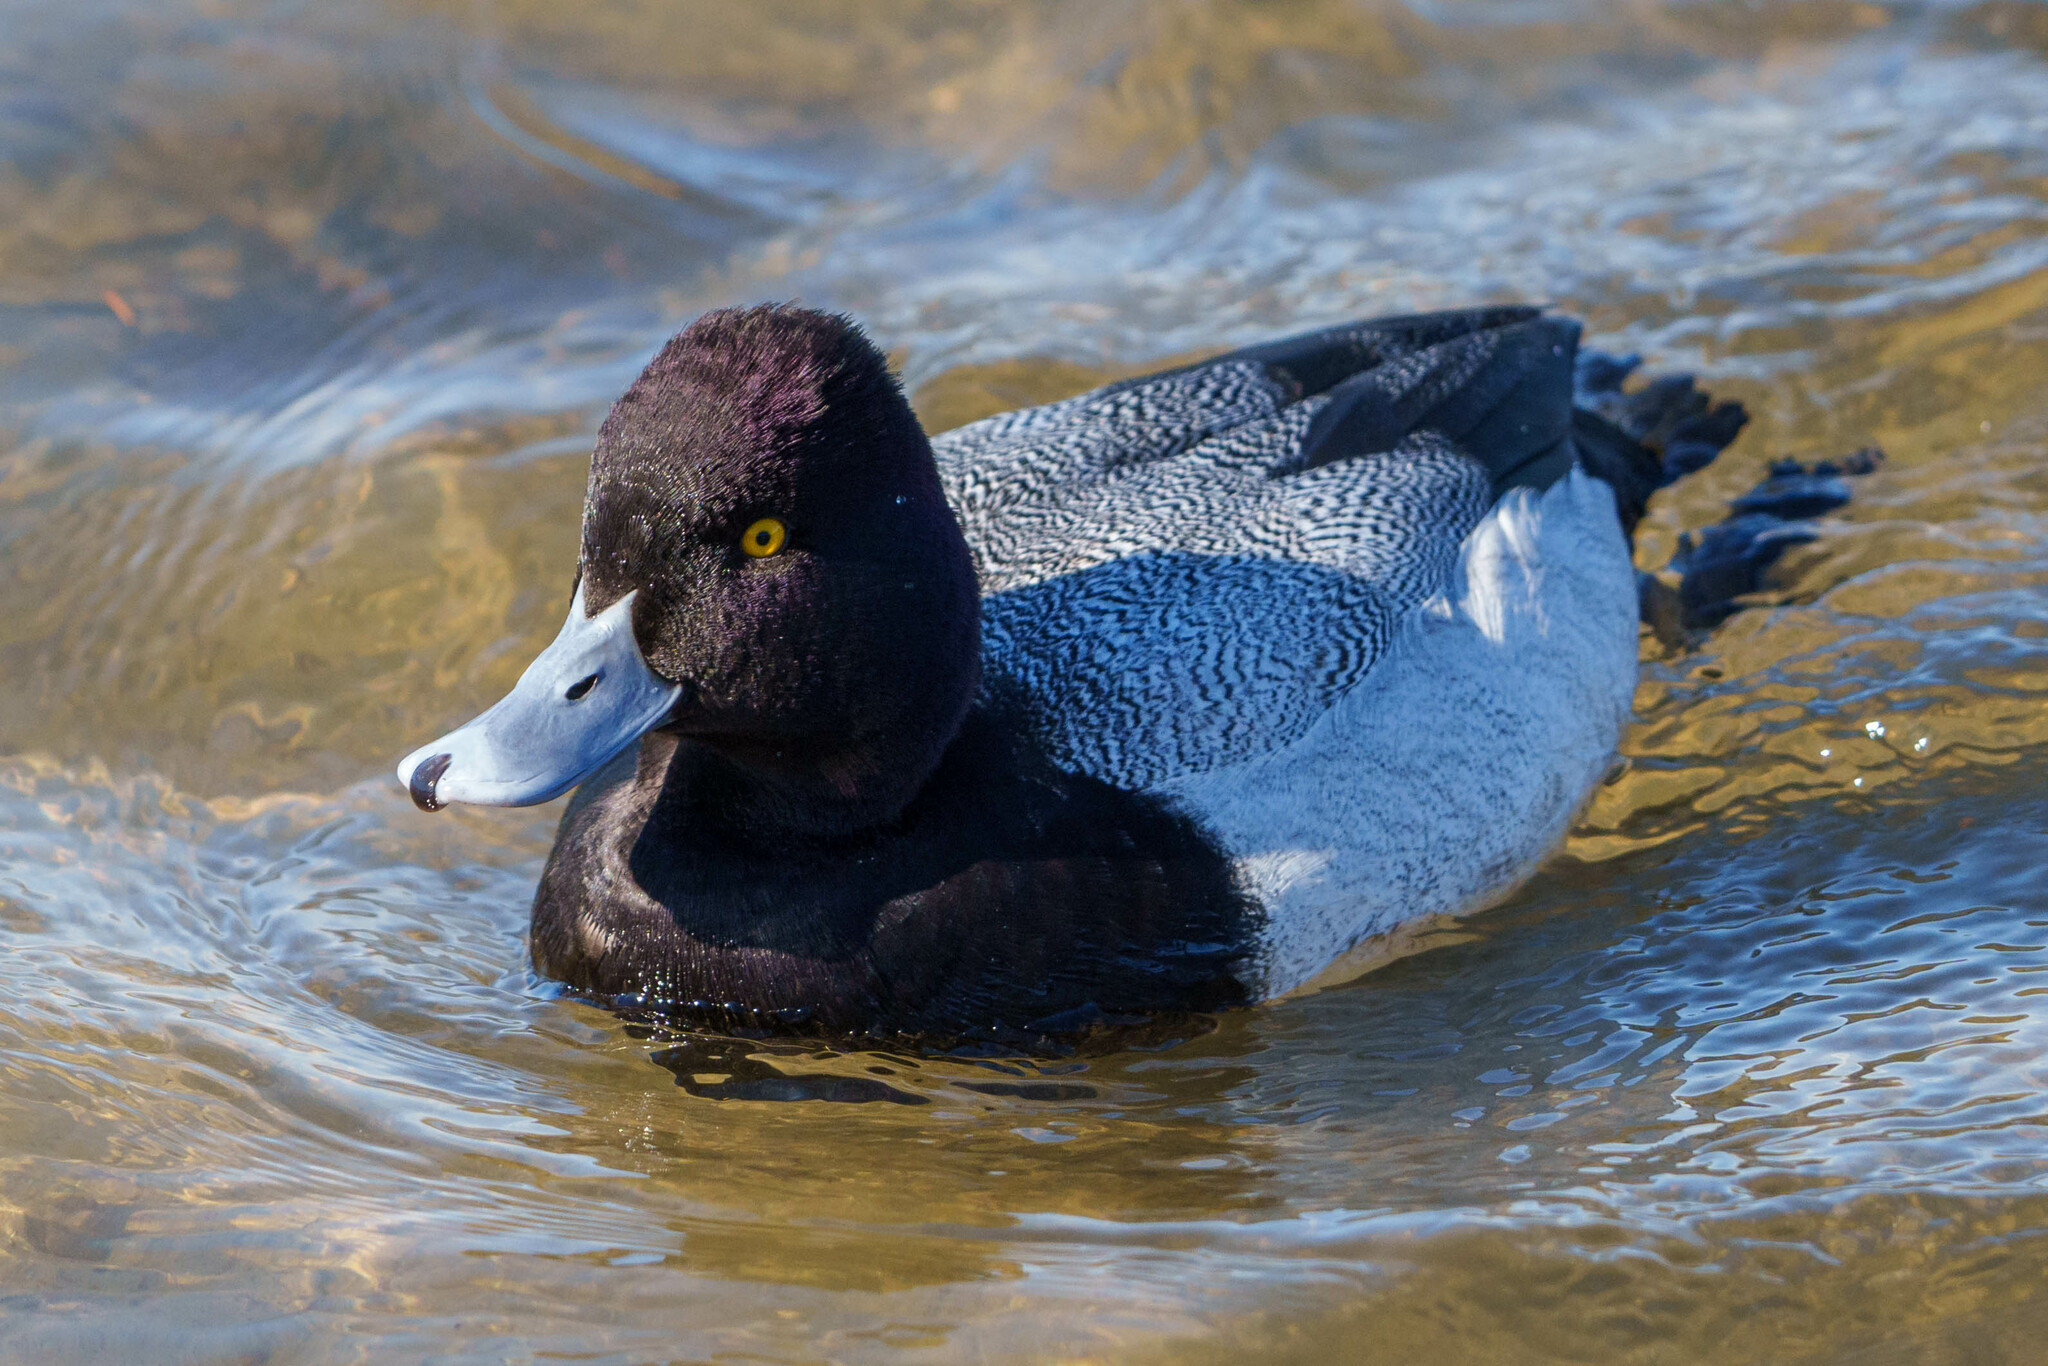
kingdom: Animalia
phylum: Chordata
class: Aves
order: Anseriformes
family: Anatidae
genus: Aythya
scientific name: Aythya affinis
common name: Lesser scaup
